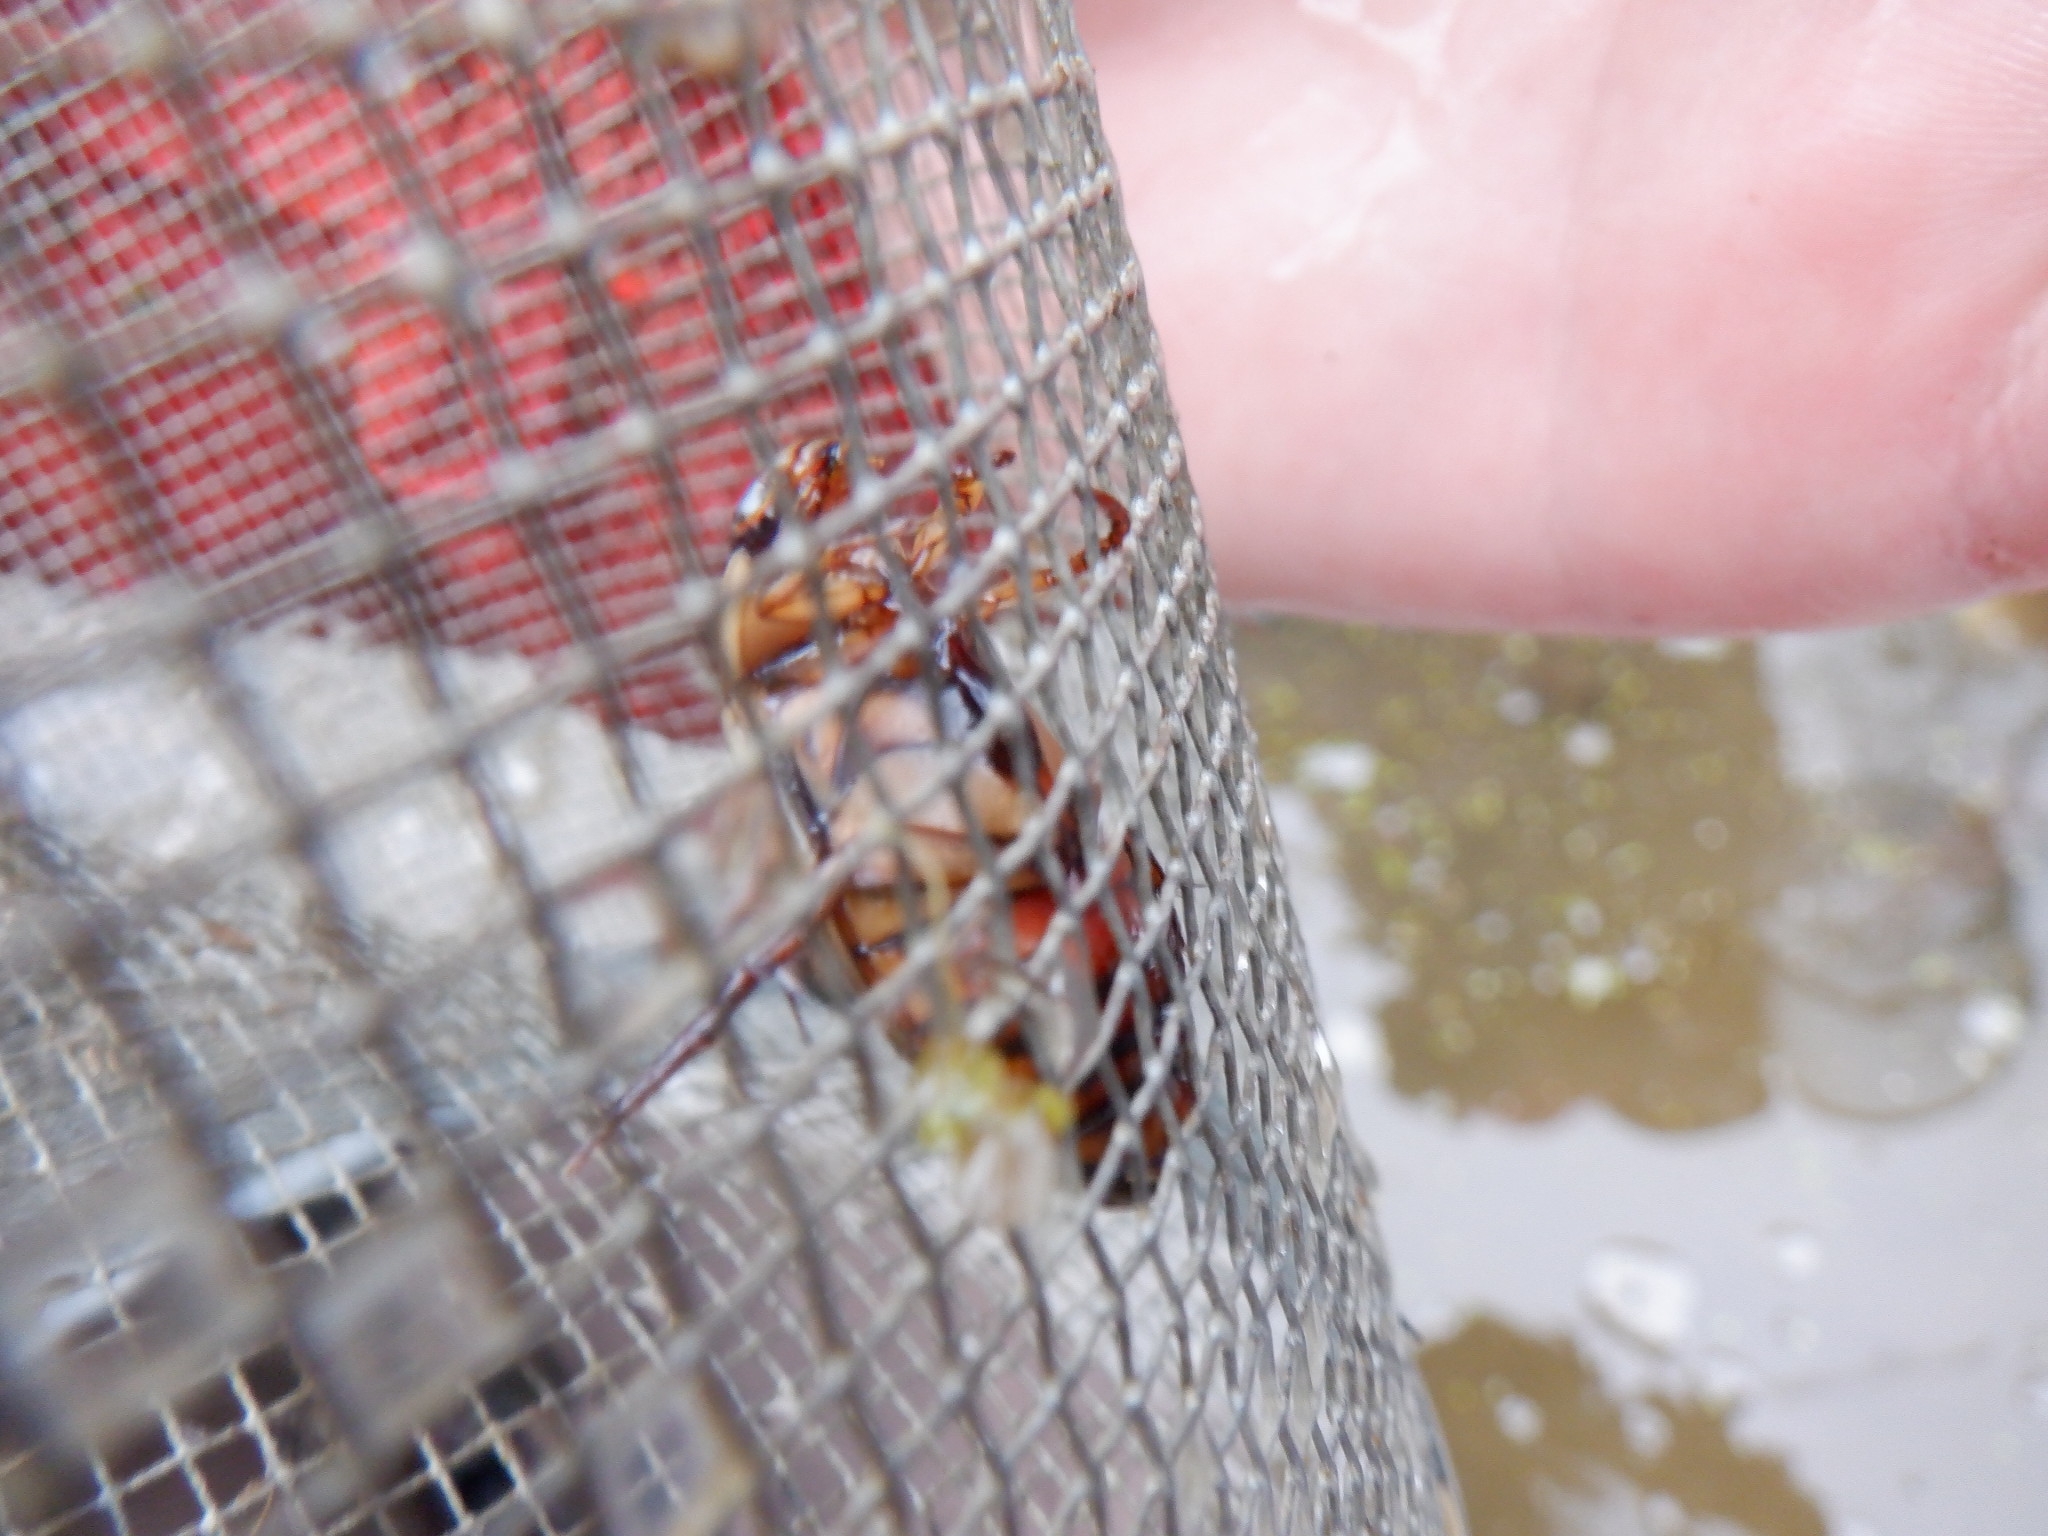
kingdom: Animalia
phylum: Arthropoda
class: Insecta
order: Coleoptera
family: Dytiscidae
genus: Dytiscus
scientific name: Dytiscus fasciventris
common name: Understriped diving beetle
